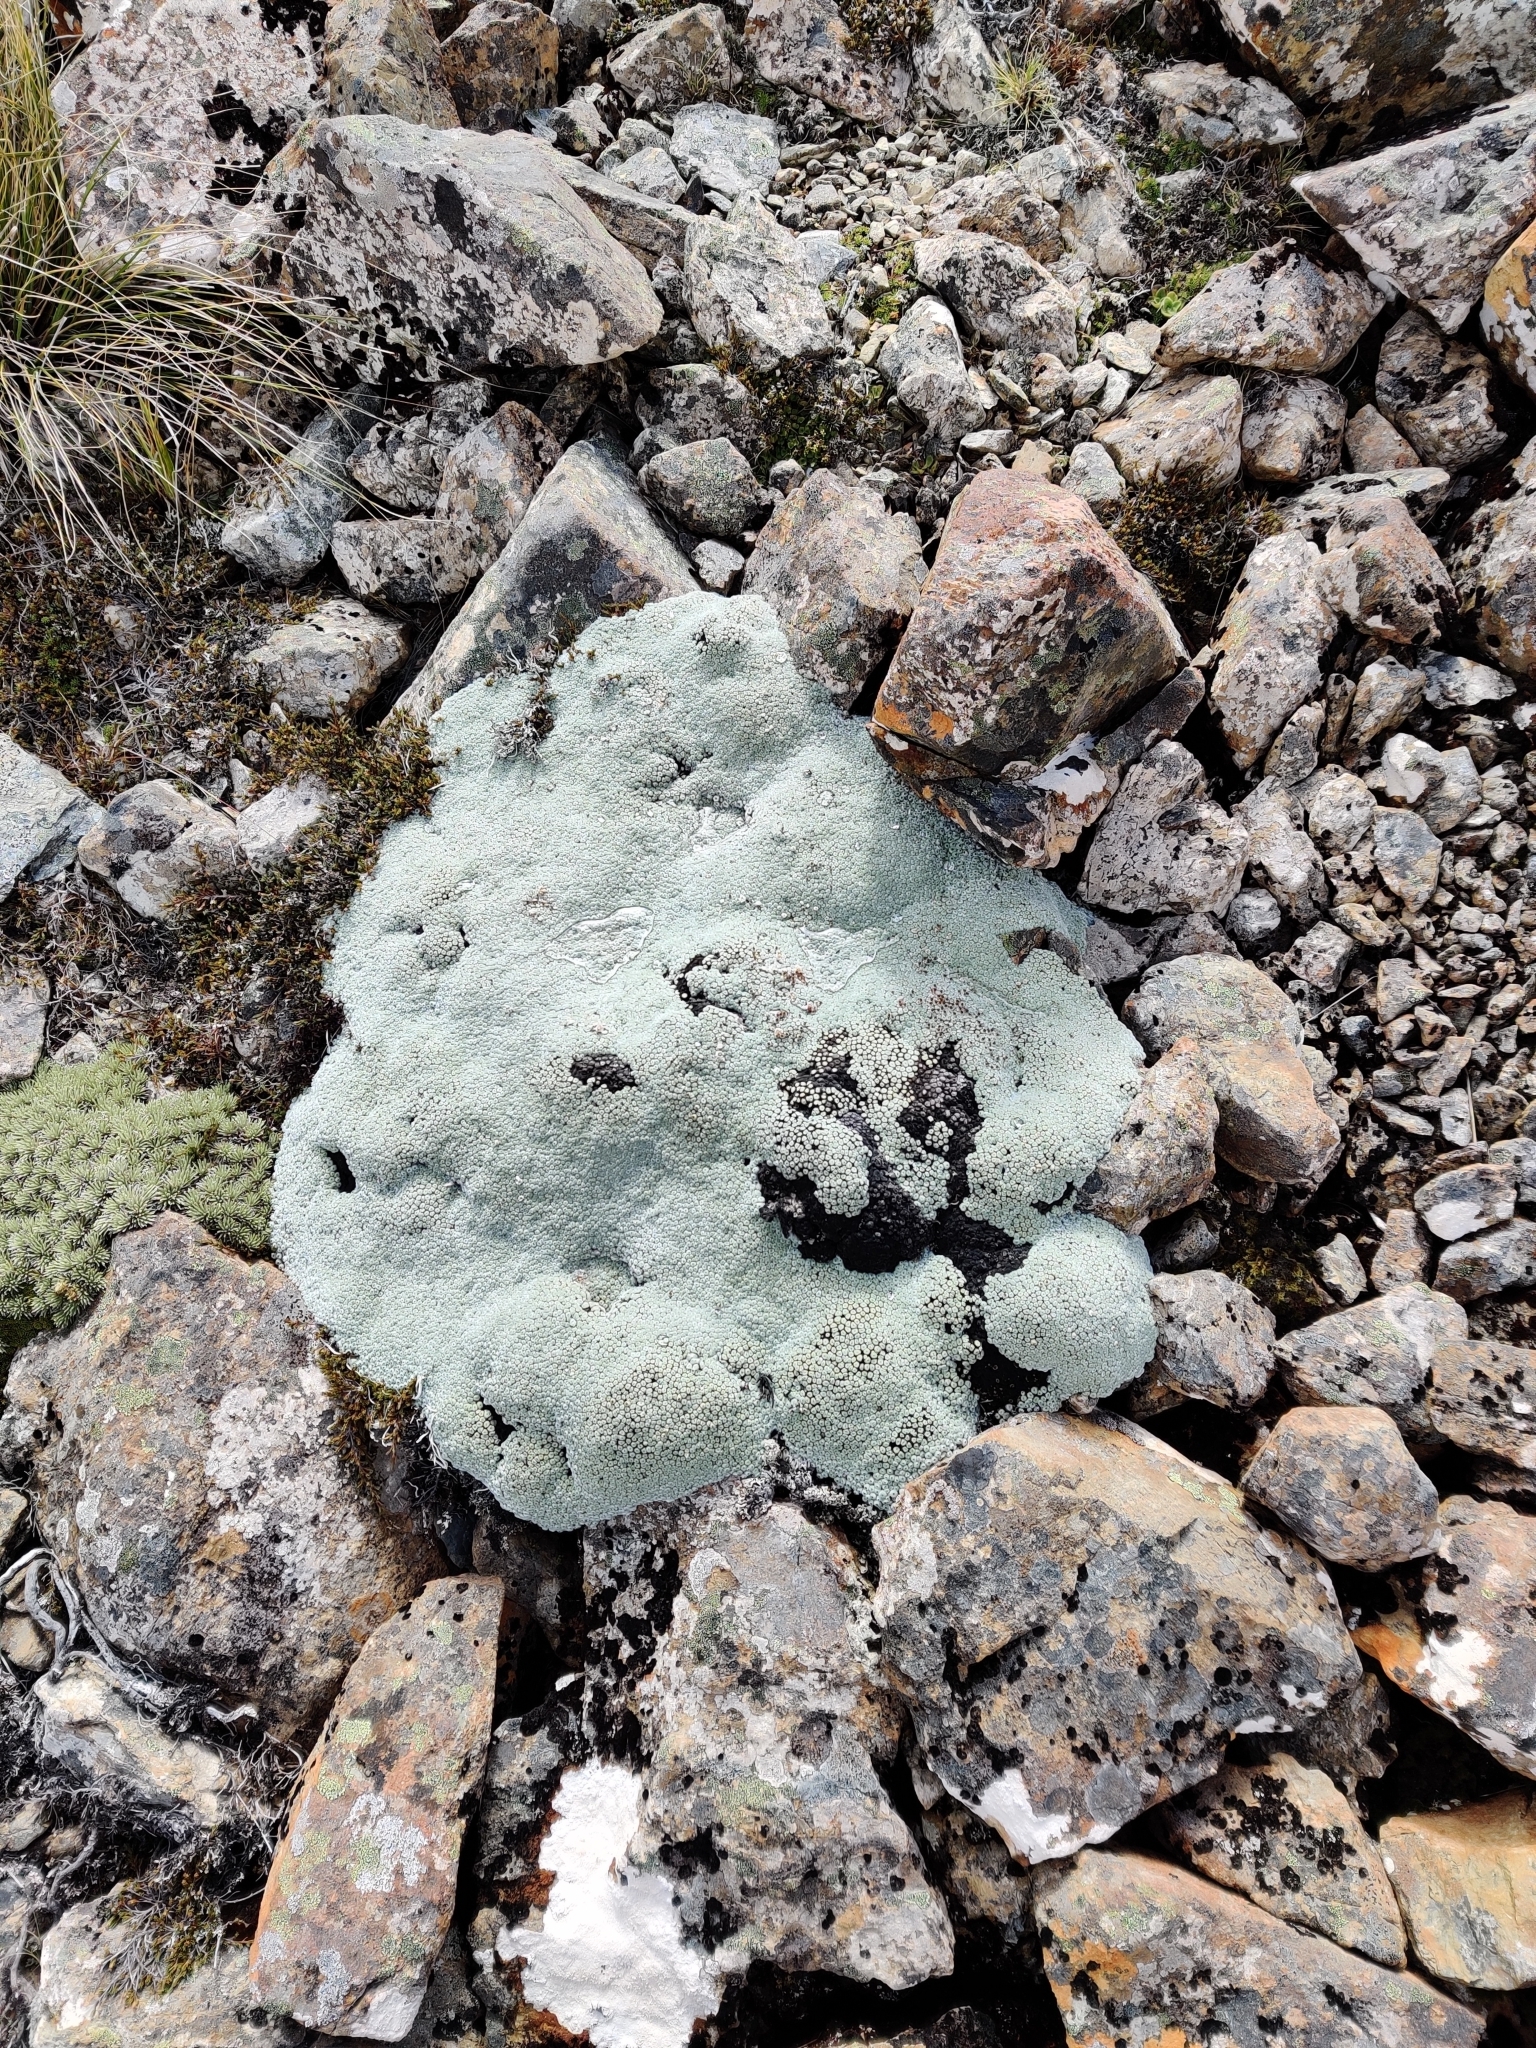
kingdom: Plantae
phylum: Tracheophyta
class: Magnoliopsida
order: Asterales
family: Asteraceae
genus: Raoulia
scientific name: Raoulia buchananii
